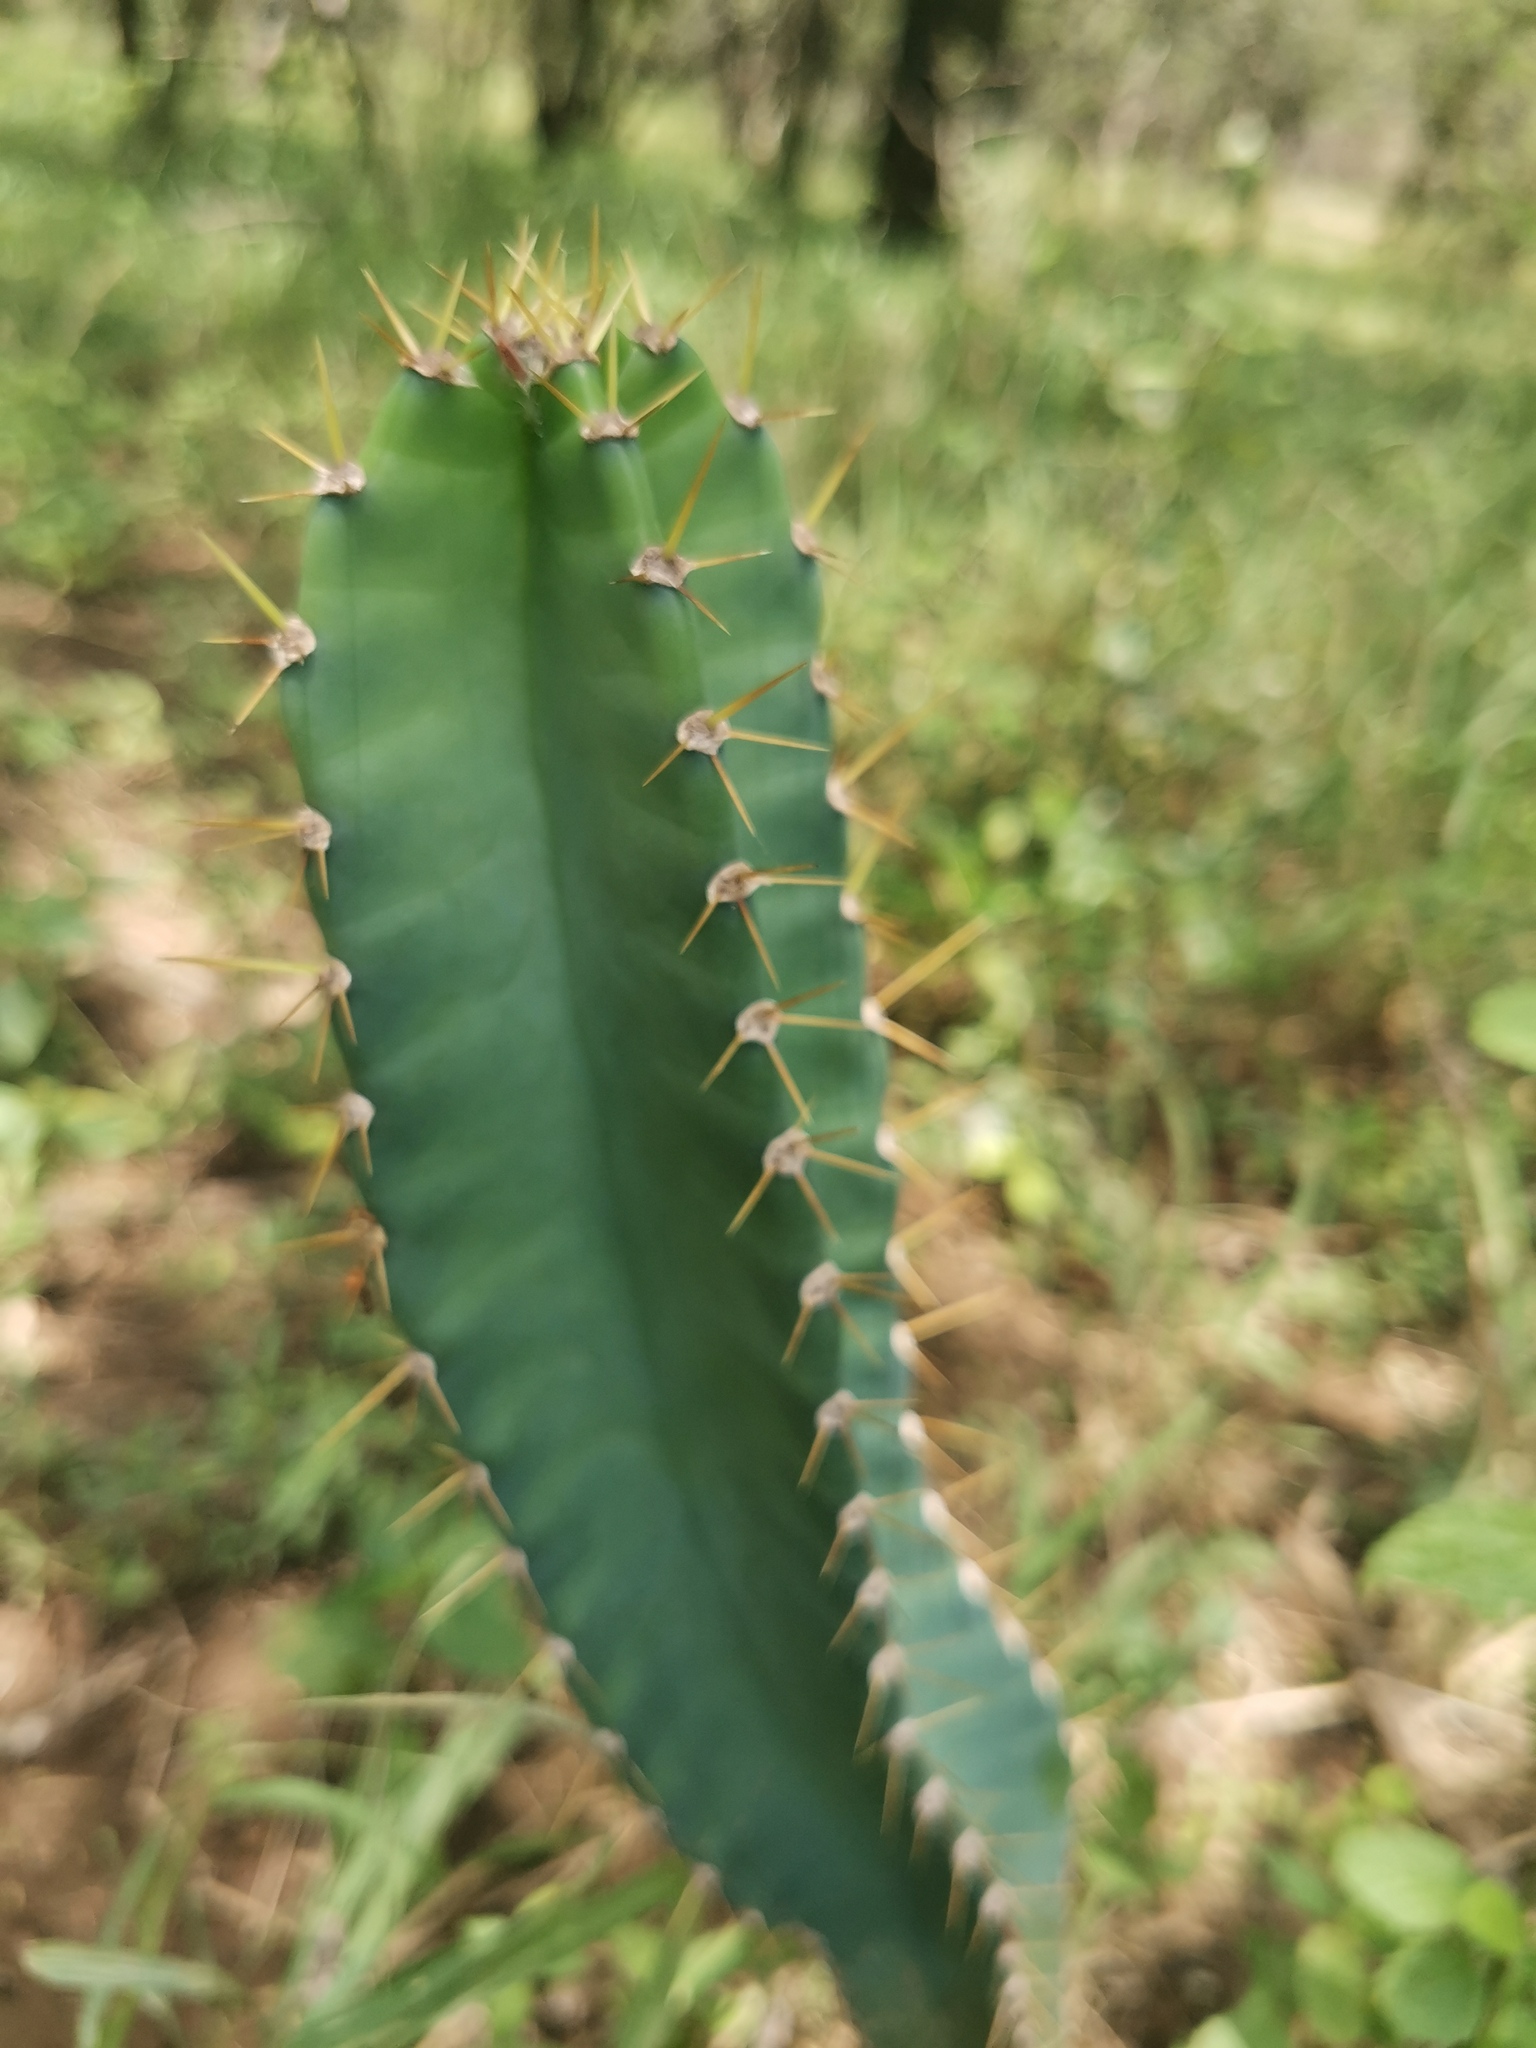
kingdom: Plantae
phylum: Tracheophyta
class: Magnoliopsida
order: Caryophyllales
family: Cactaceae
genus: Cereus
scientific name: Cereus jamacaru
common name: Queen-of-the-night
